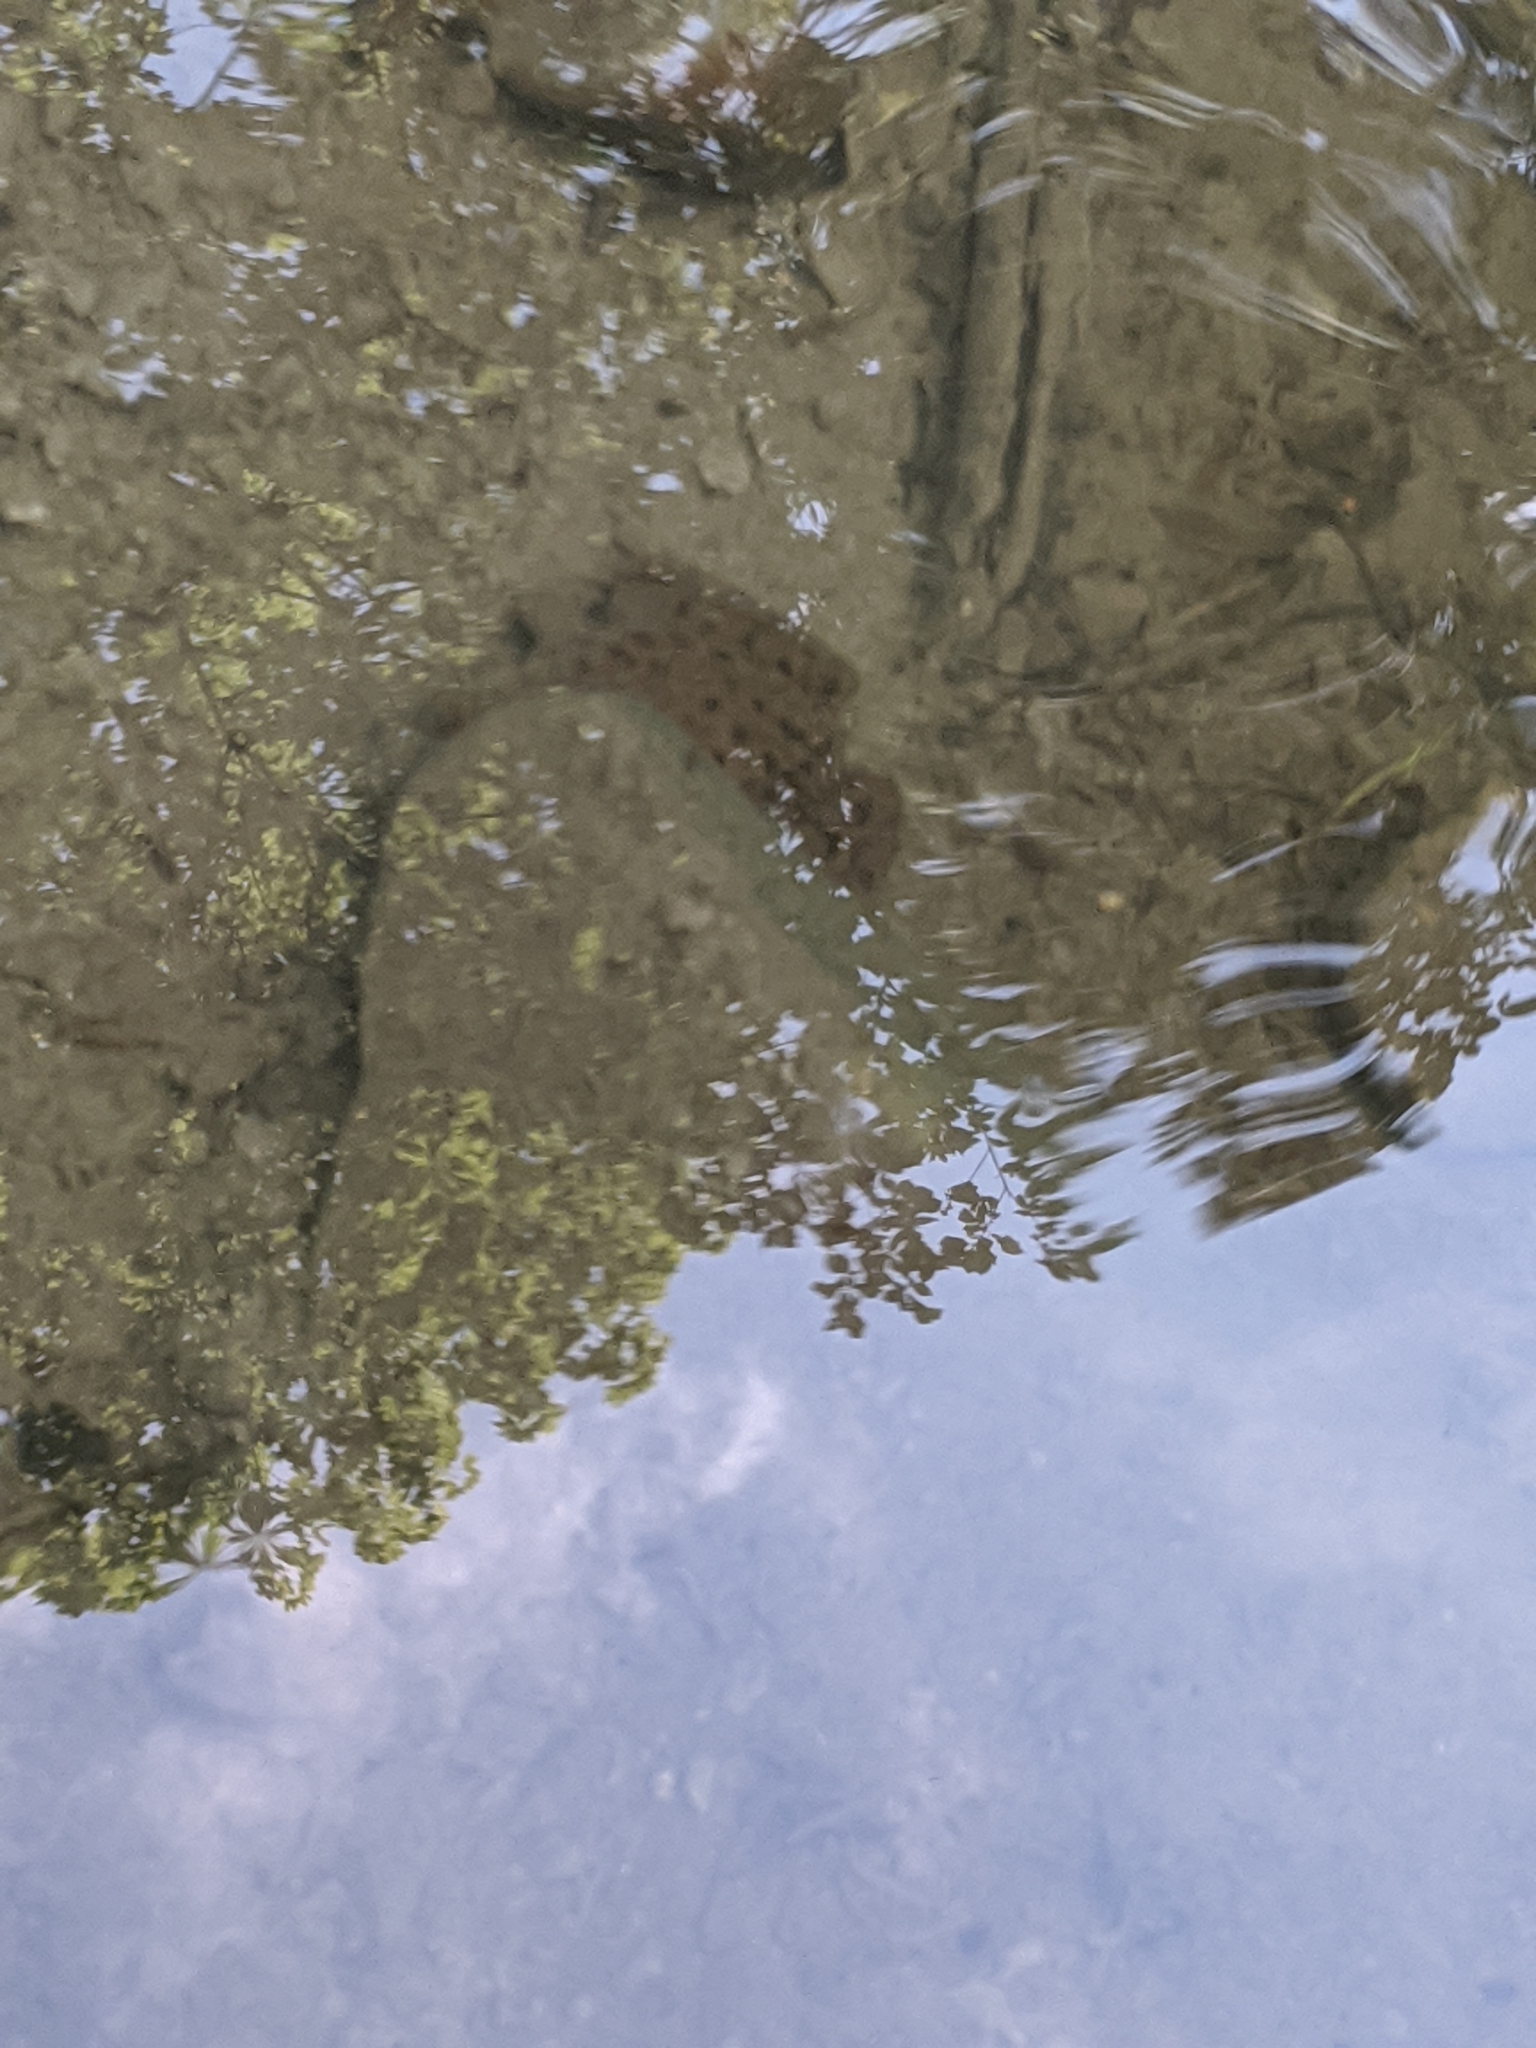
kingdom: Animalia
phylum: Chordata
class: Amphibia
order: Anura
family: Ranidae
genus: Lithobates
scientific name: Lithobates clamitans
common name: Green frog
